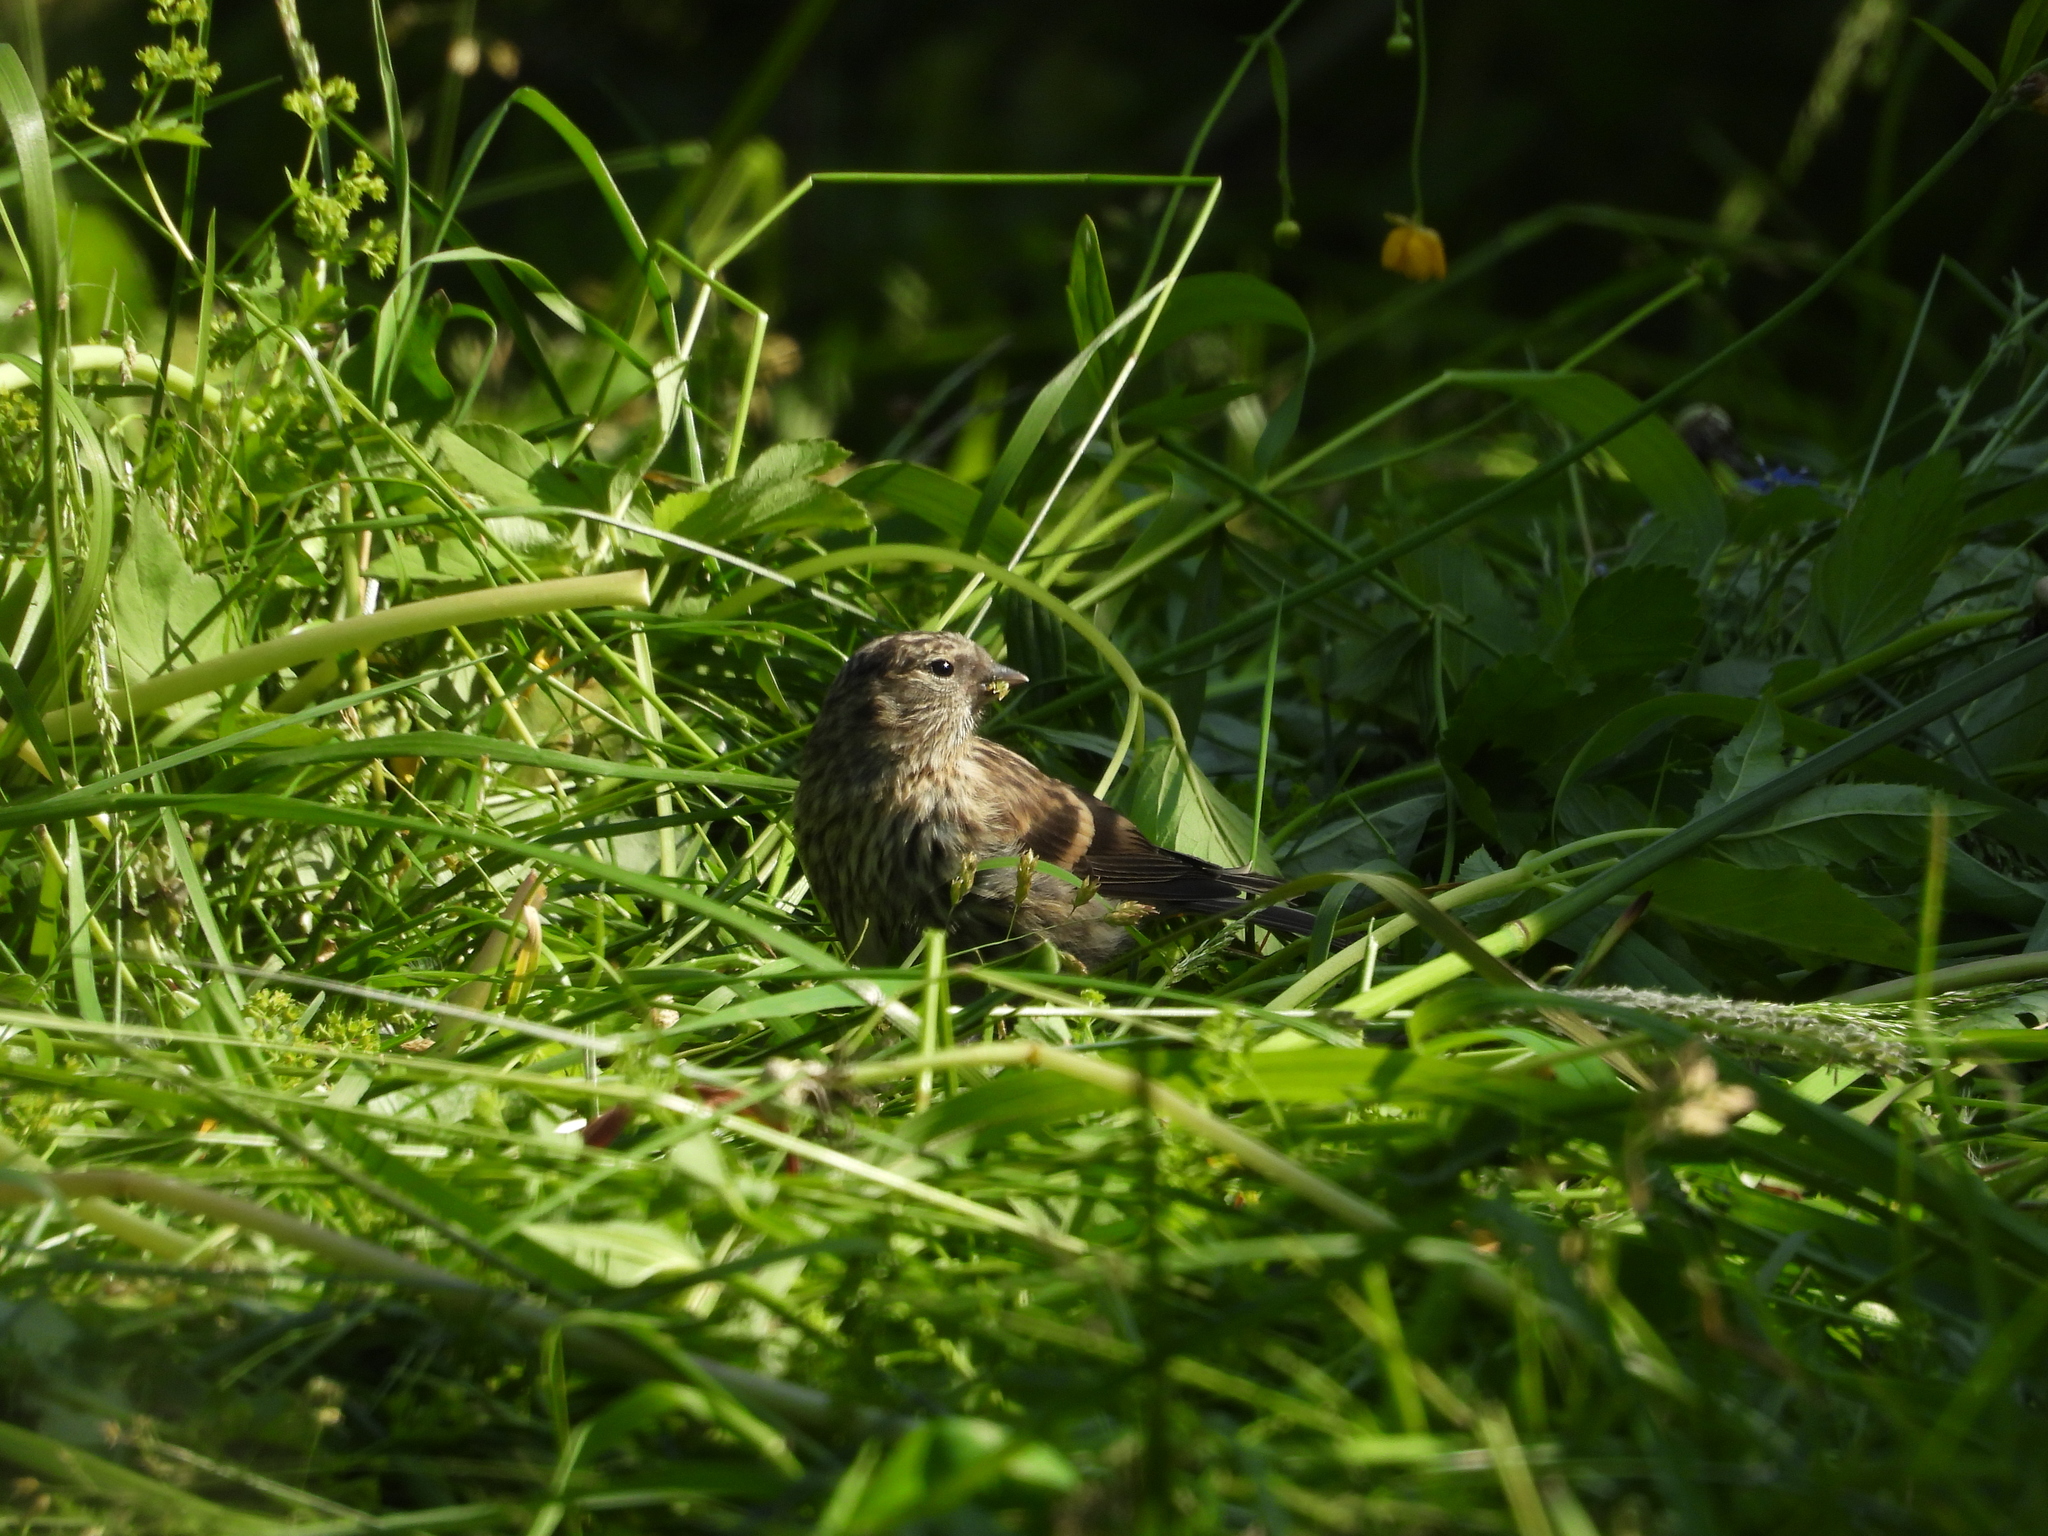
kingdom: Animalia
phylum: Chordata
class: Aves
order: Passeriformes
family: Fringillidae
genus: Acanthis
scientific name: Acanthis flammea
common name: Common redpoll
